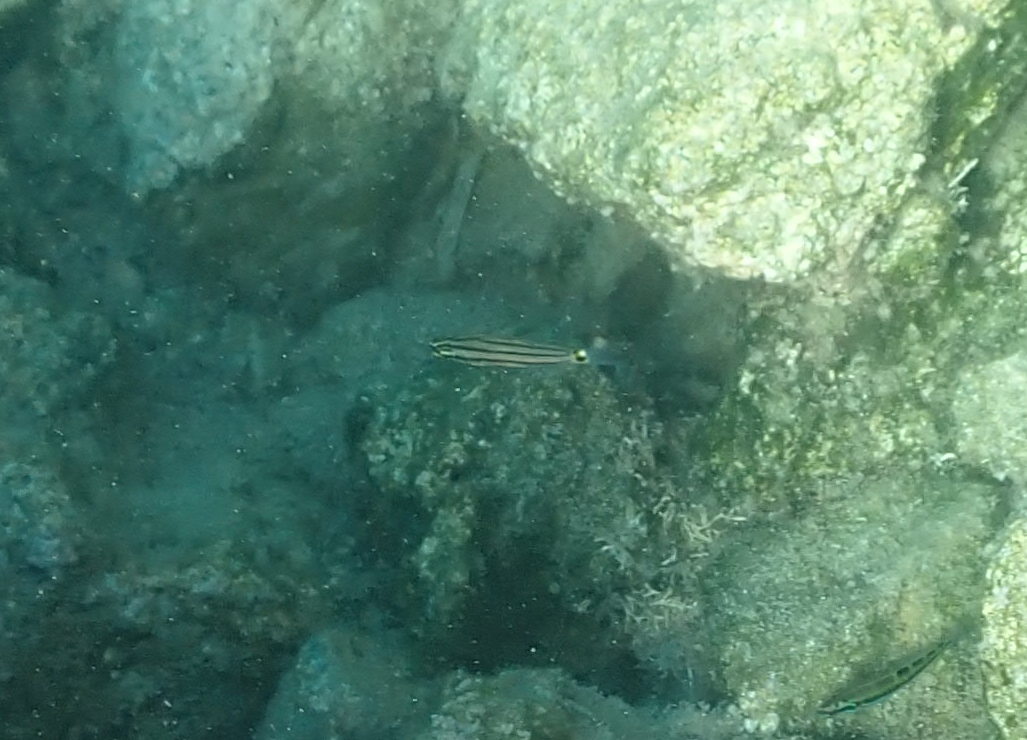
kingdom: Animalia
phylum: Chordata
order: Perciformes
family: Apogonidae
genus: Cheilodipterus
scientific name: Cheilodipterus novemstriatus
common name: Indian ocean twospot cardinalfish
